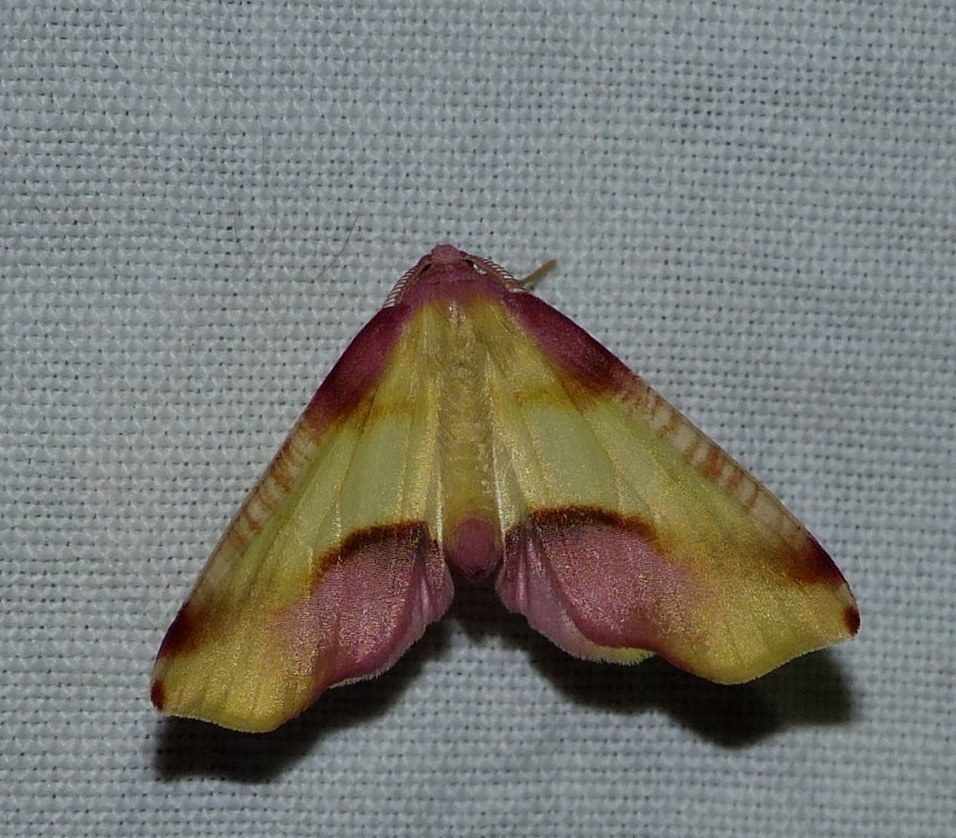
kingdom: Animalia
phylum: Arthropoda
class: Insecta
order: Lepidoptera
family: Geometridae
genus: Plagodis
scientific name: Plagodis serinaria
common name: Lemon plagodis
